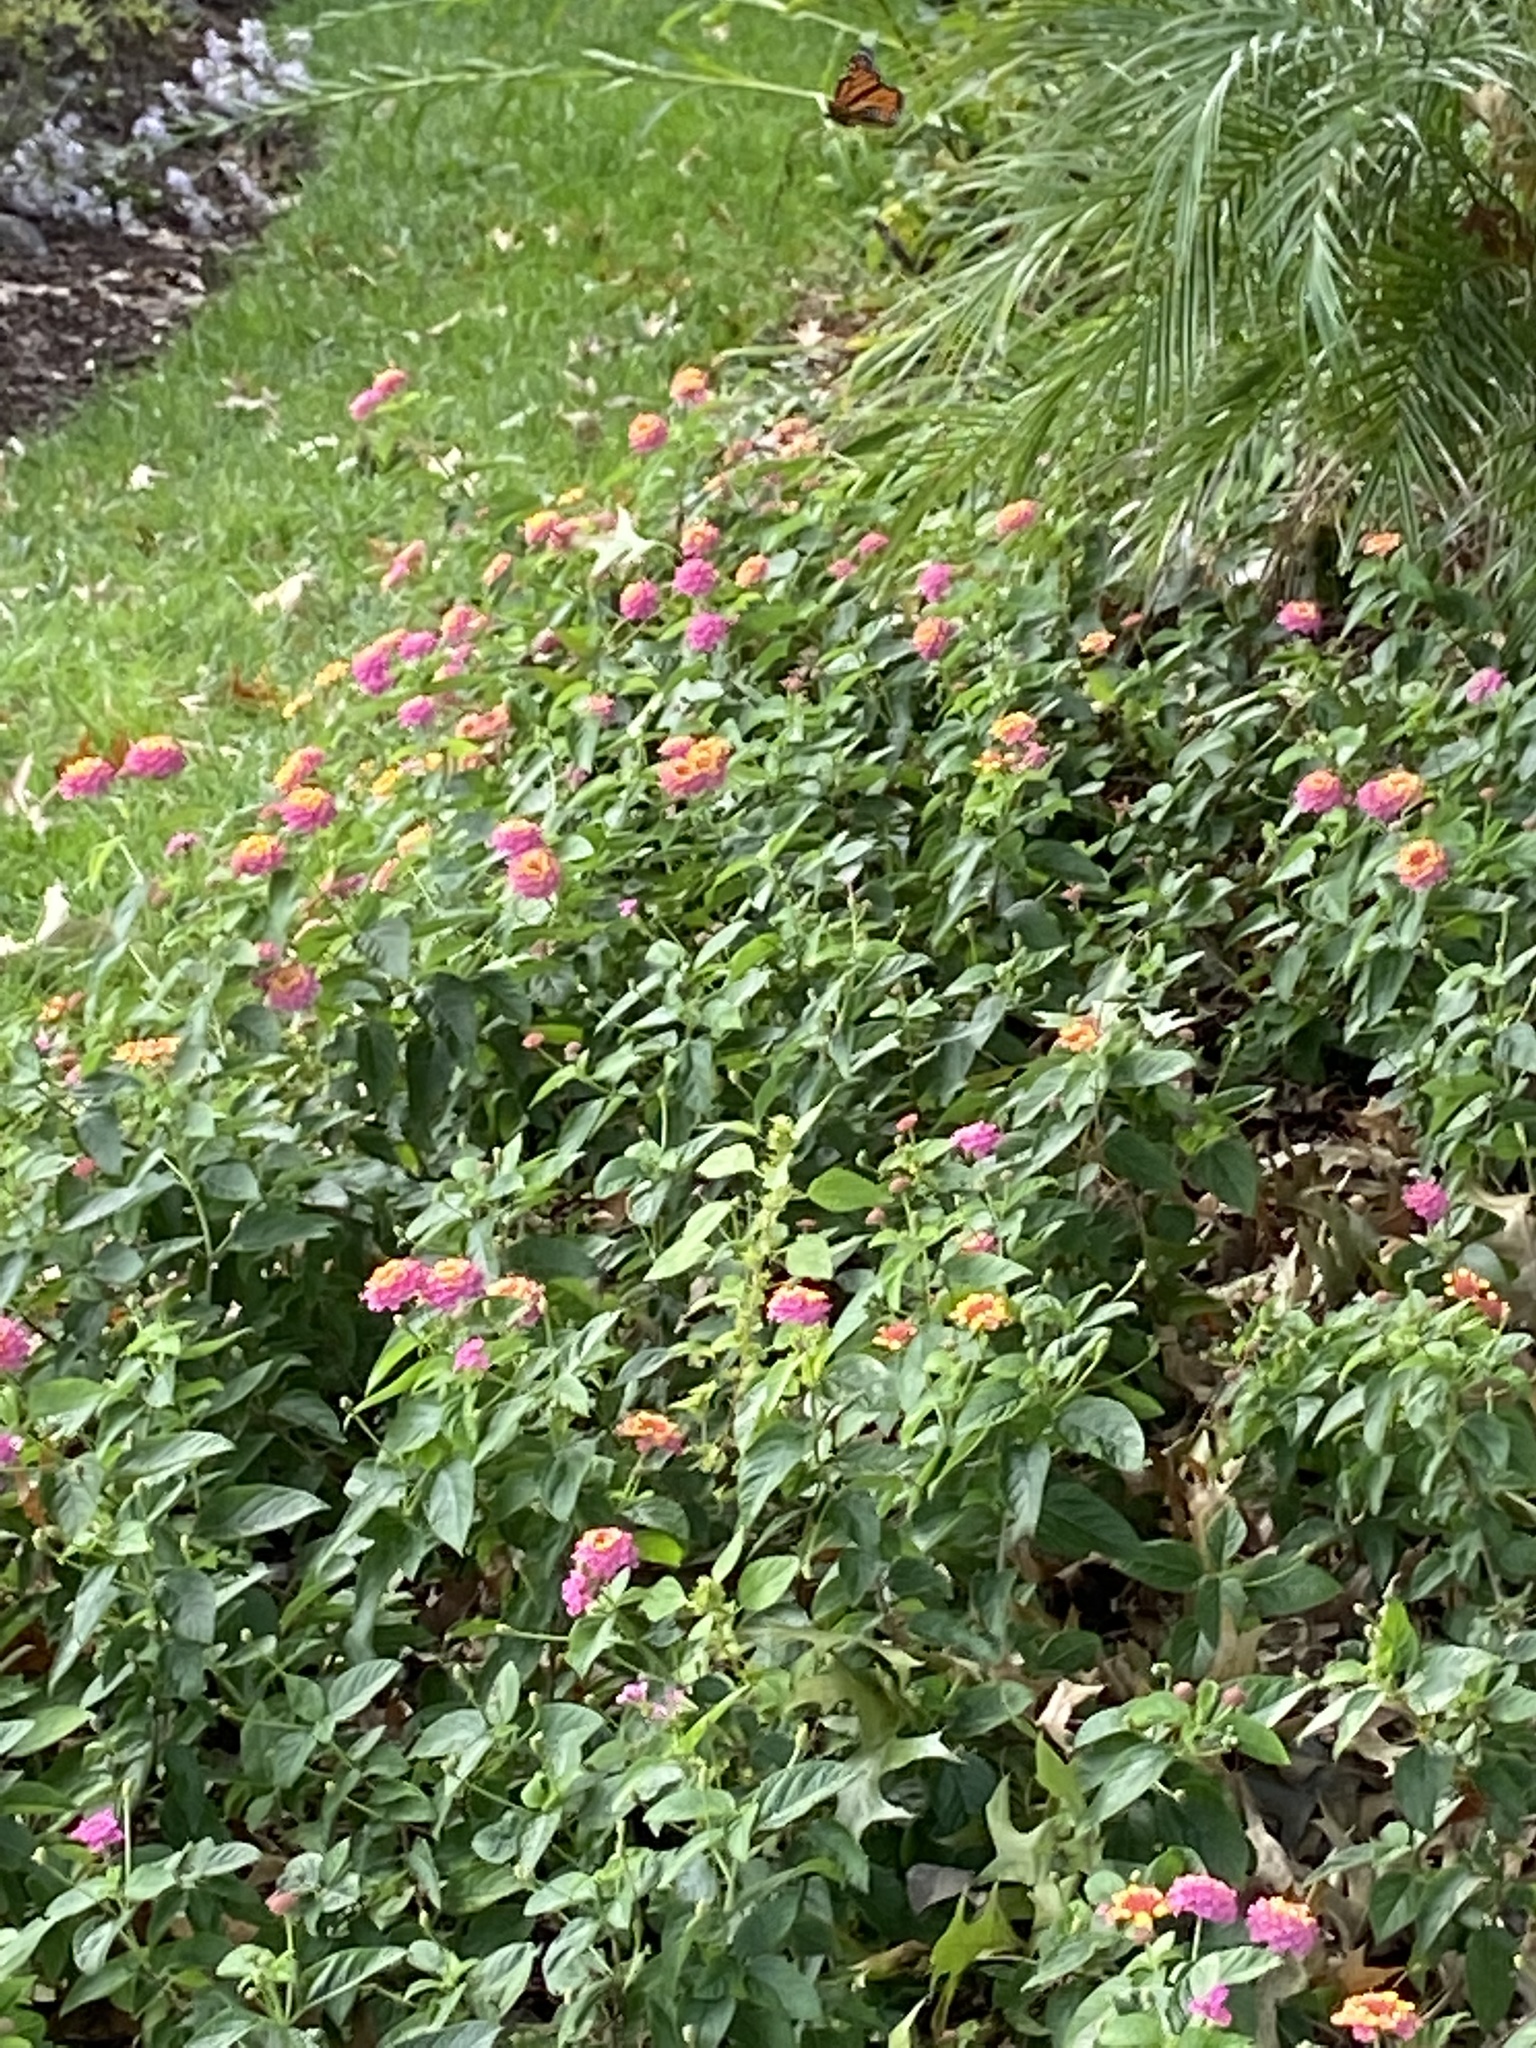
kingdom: Animalia
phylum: Arthropoda
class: Insecta
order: Lepidoptera
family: Nymphalidae
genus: Danaus
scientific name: Danaus plexippus
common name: Monarch
